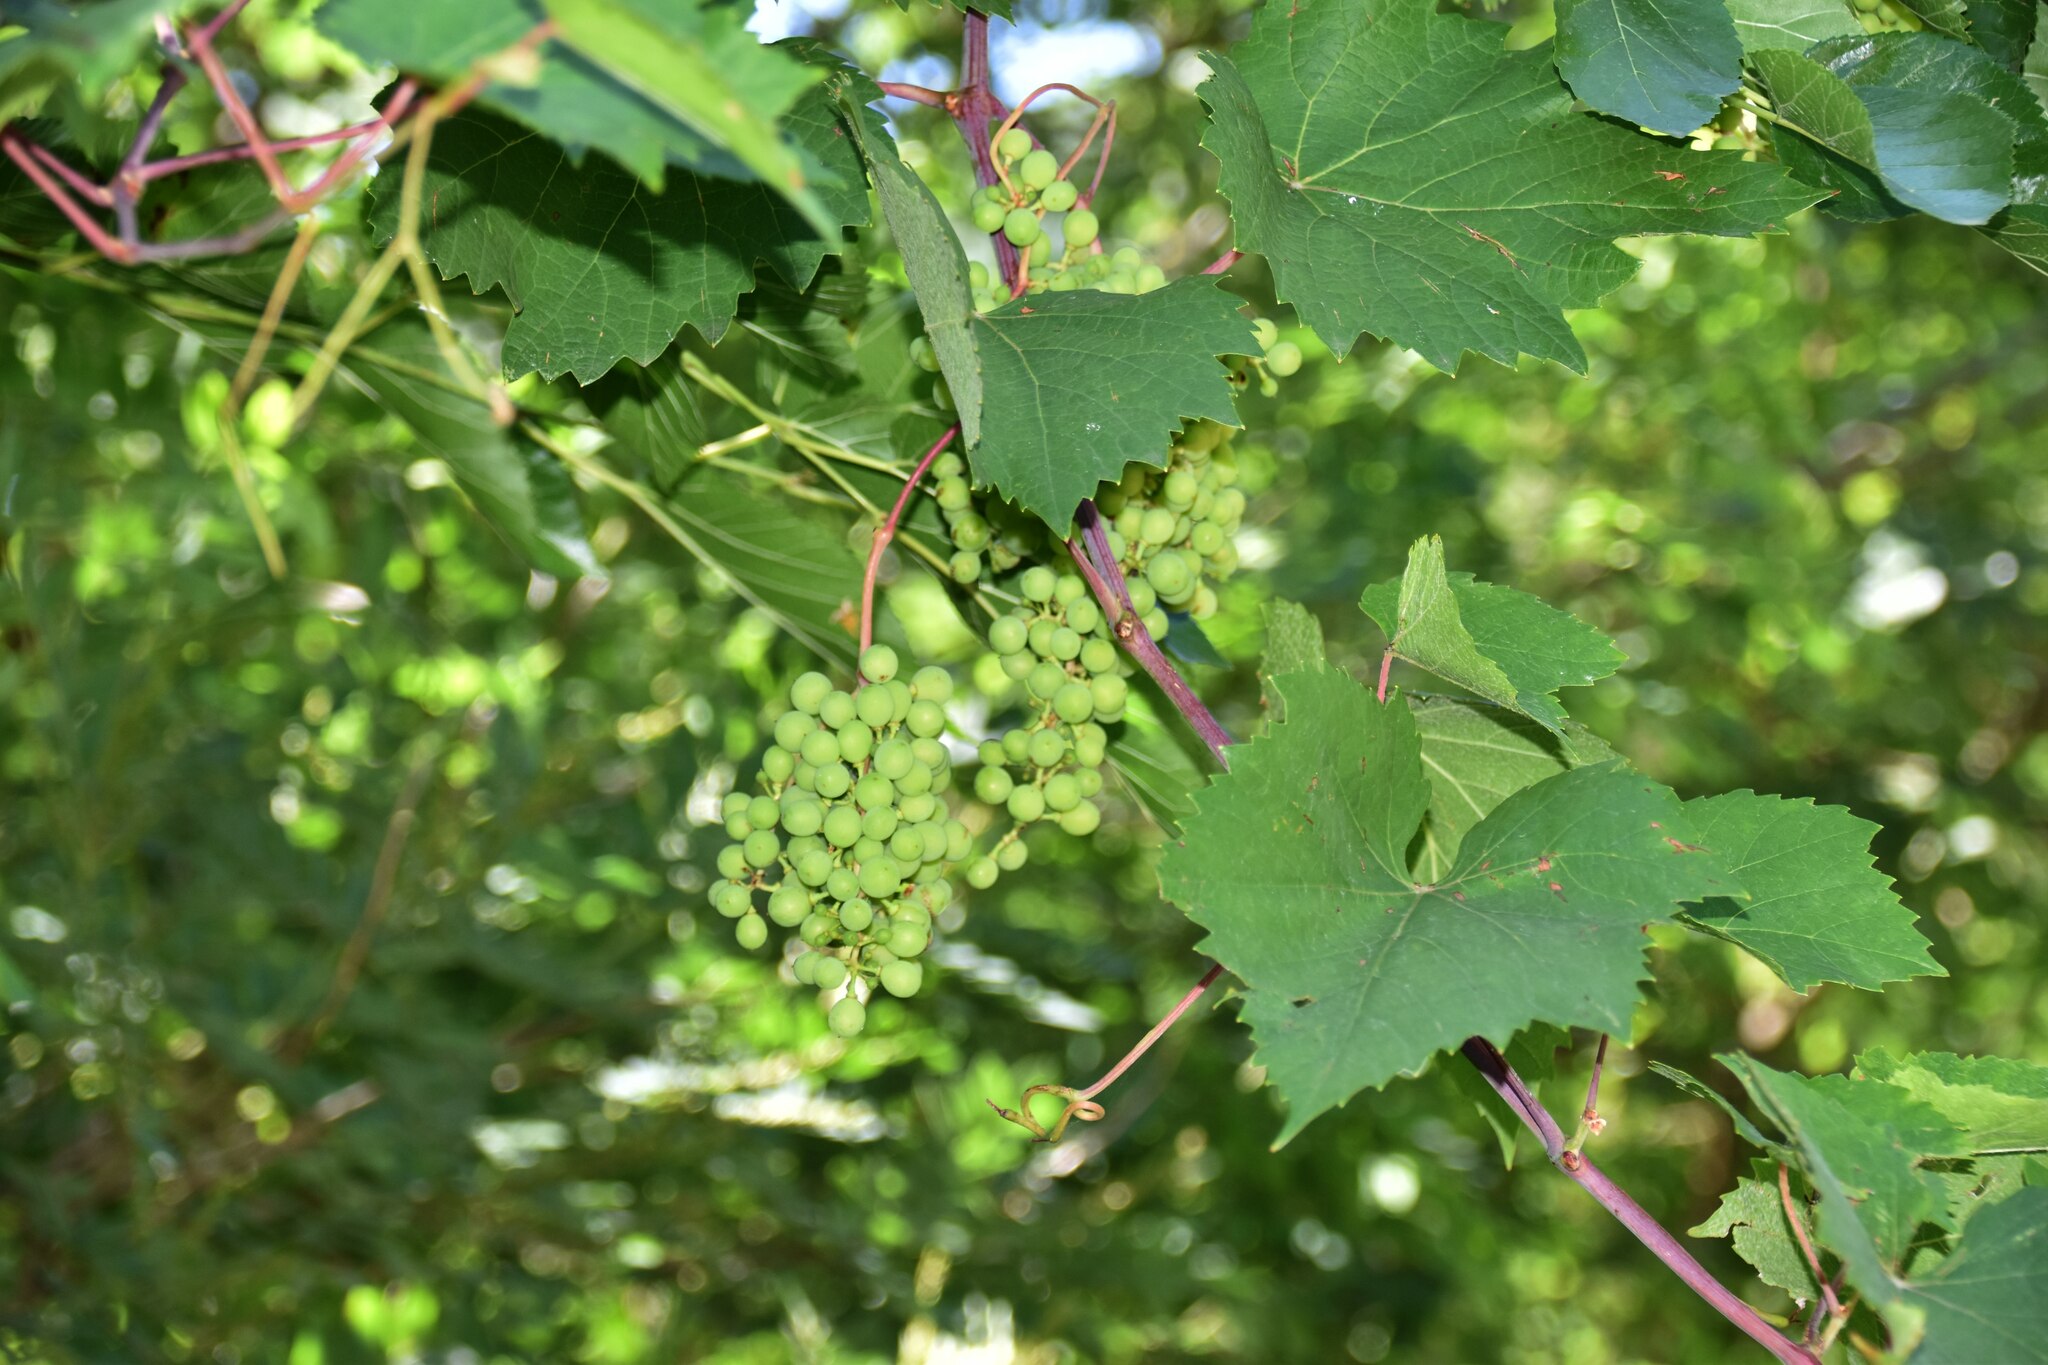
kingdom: Plantae
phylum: Tracheophyta
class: Magnoliopsida
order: Vitales
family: Vitaceae
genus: Vitis
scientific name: Vitis vinifera
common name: Grape-vine
